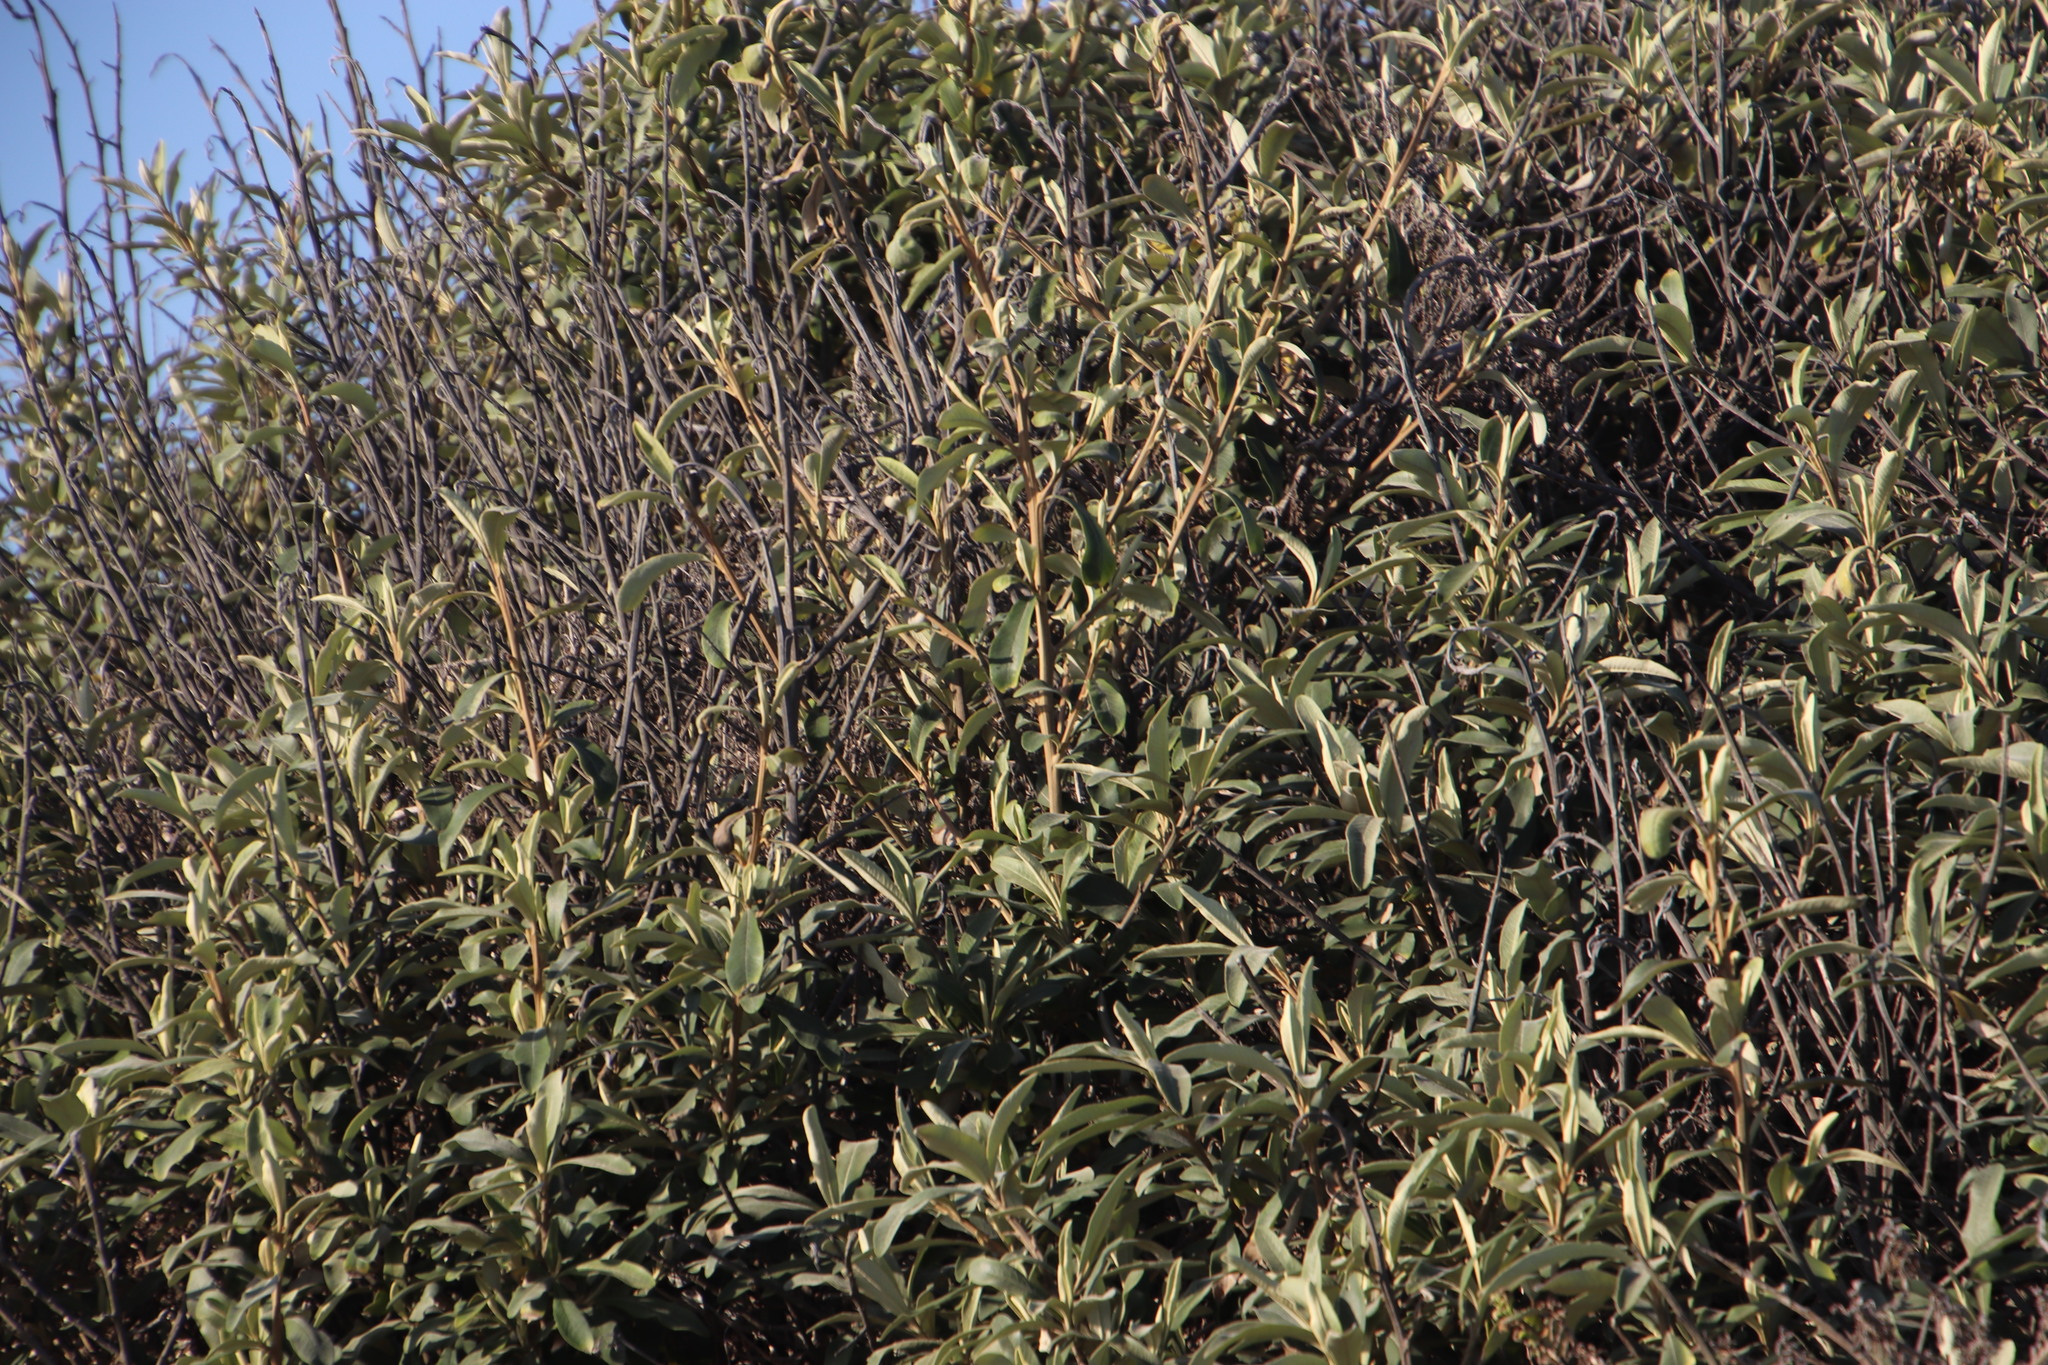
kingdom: Plantae
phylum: Tracheophyta
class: Magnoliopsida
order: Asterales
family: Asteraceae
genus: Tarchonanthus
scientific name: Tarchonanthus littoralis
